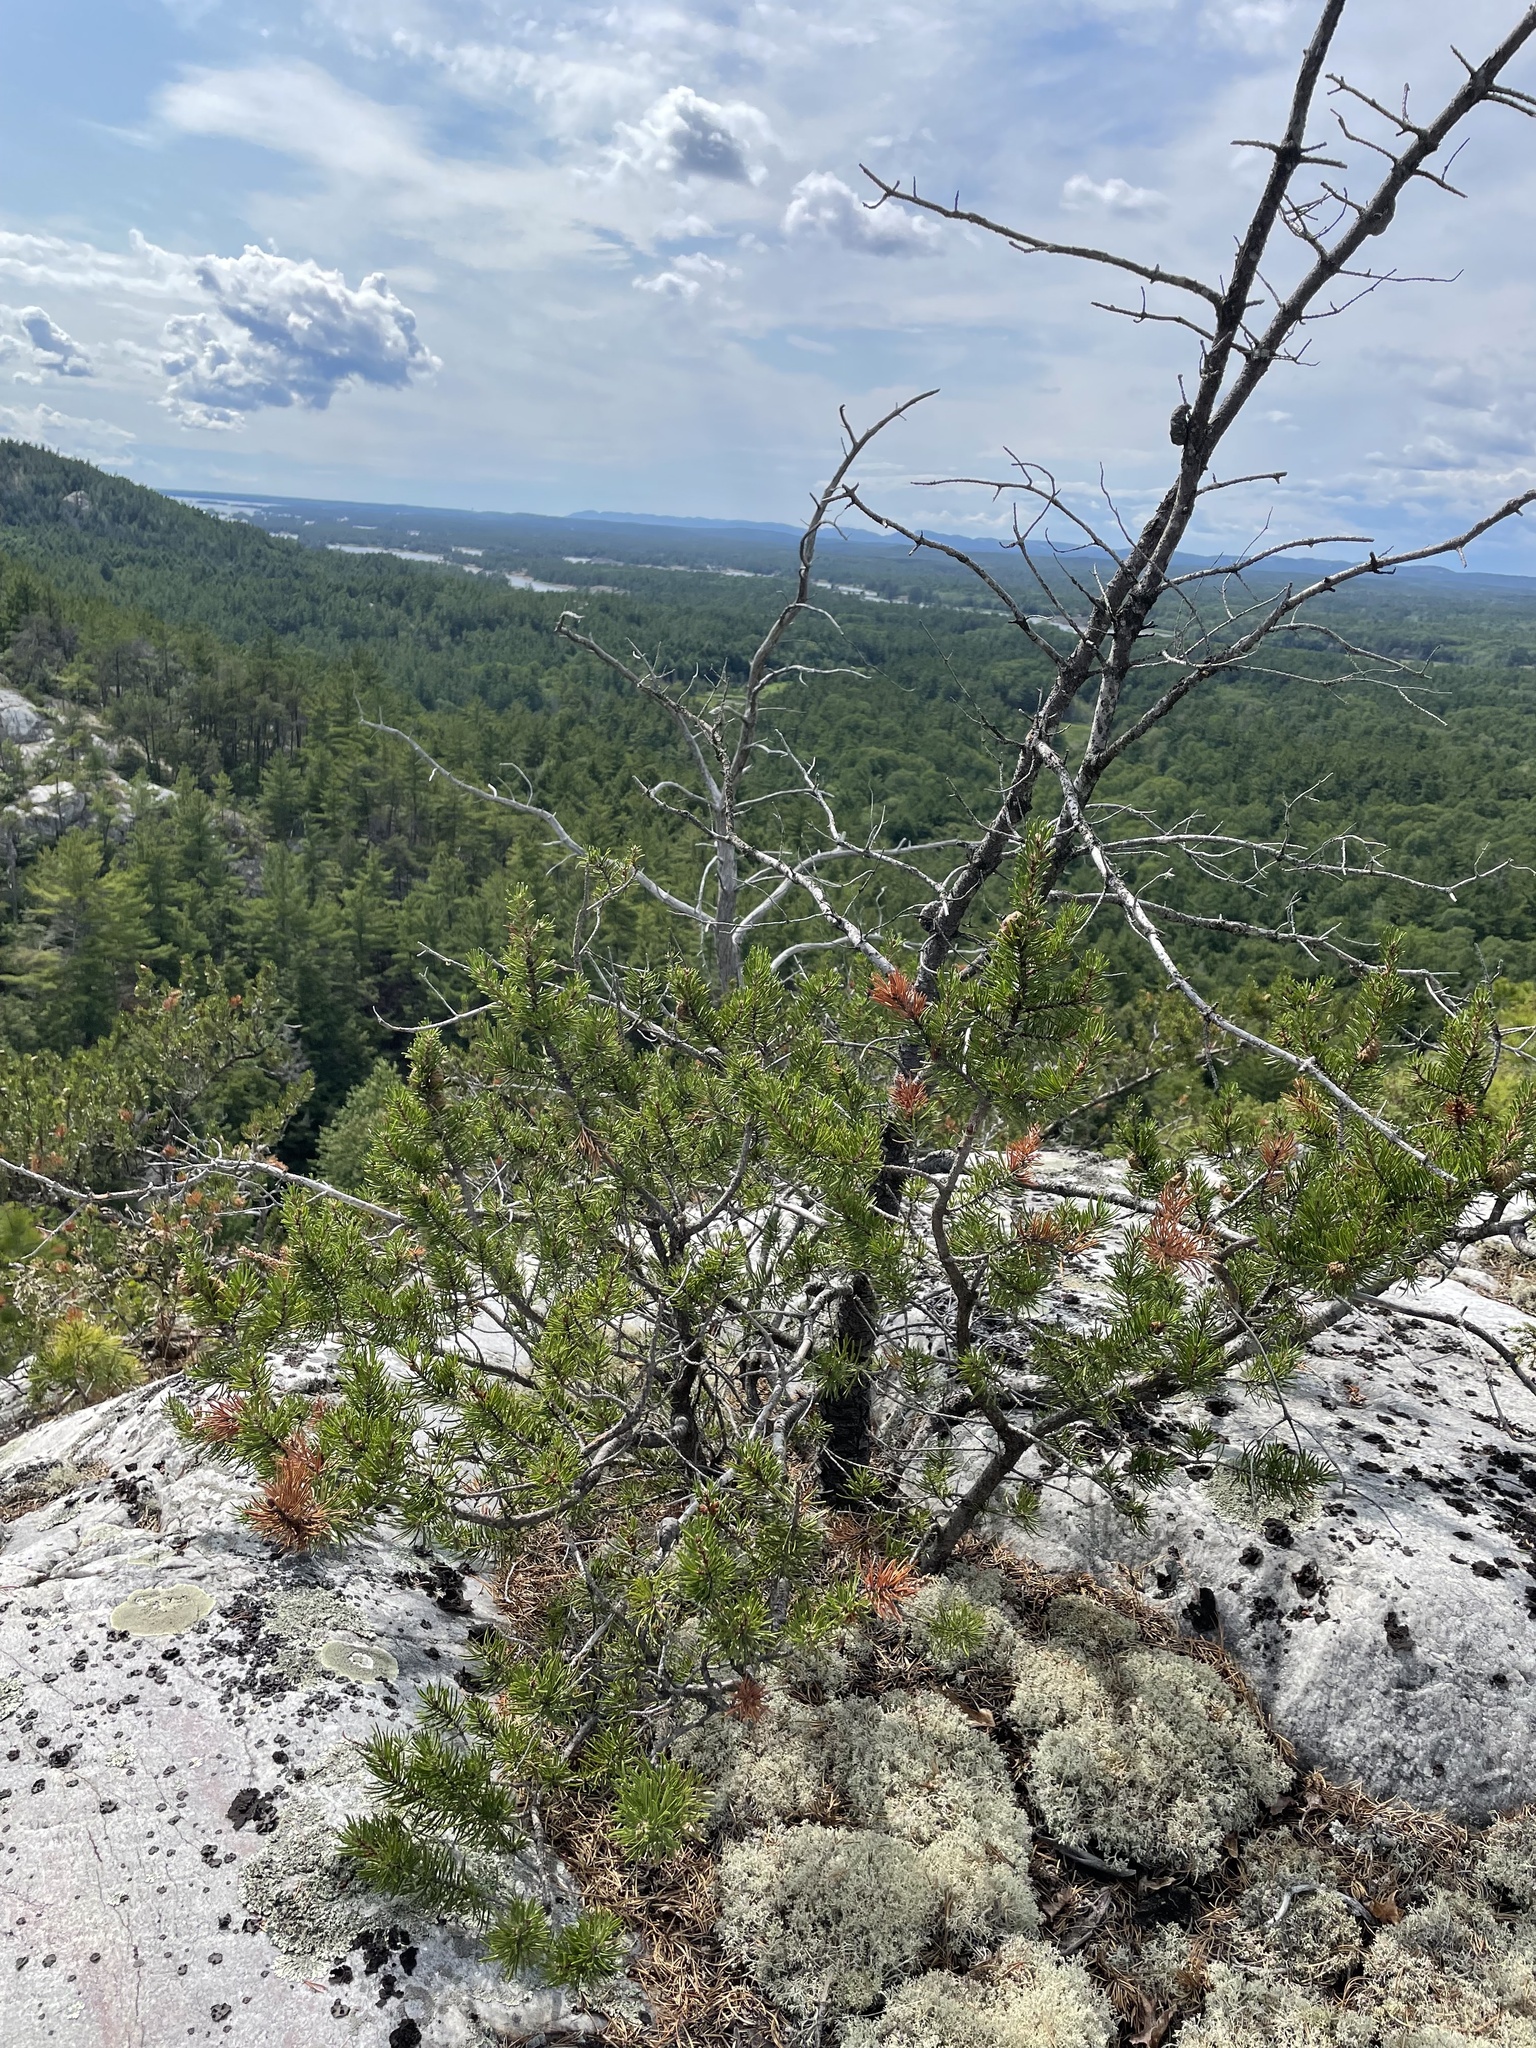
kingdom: Plantae
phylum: Tracheophyta
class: Pinopsida
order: Pinales
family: Pinaceae
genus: Pinus
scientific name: Pinus banksiana
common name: Jack pine
